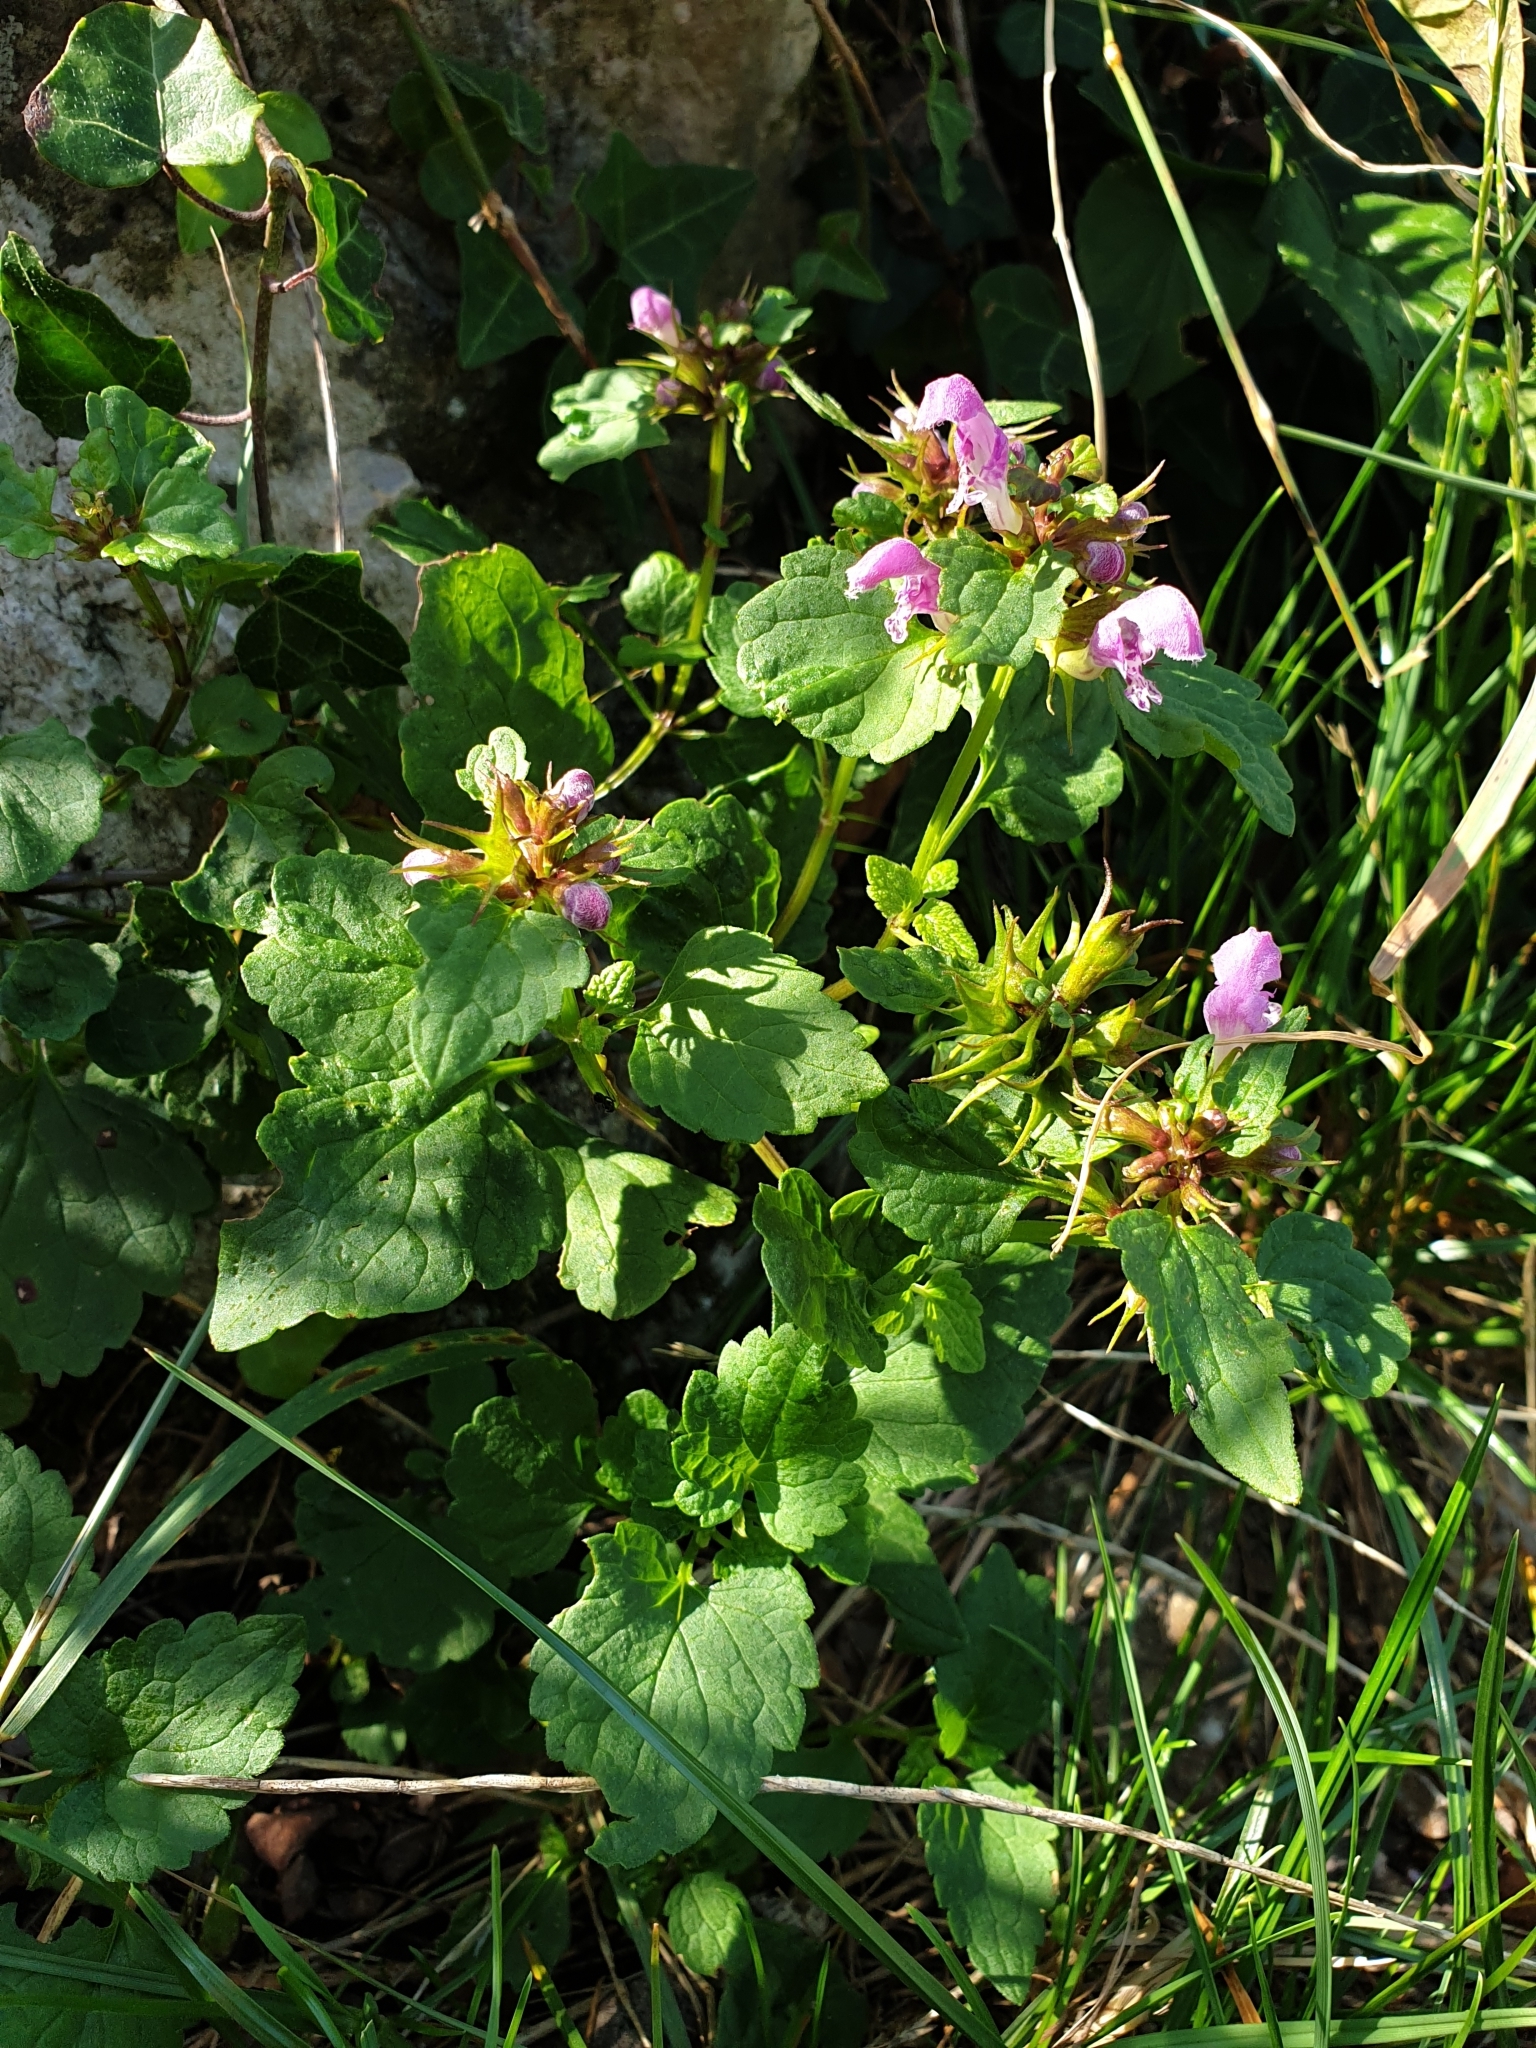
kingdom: Plantae
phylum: Tracheophyta
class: Magnoliopsida
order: Lamiales
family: Lamiaceae
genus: Lamium
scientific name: Lamium maculatum
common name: Spotted dead-nettle
